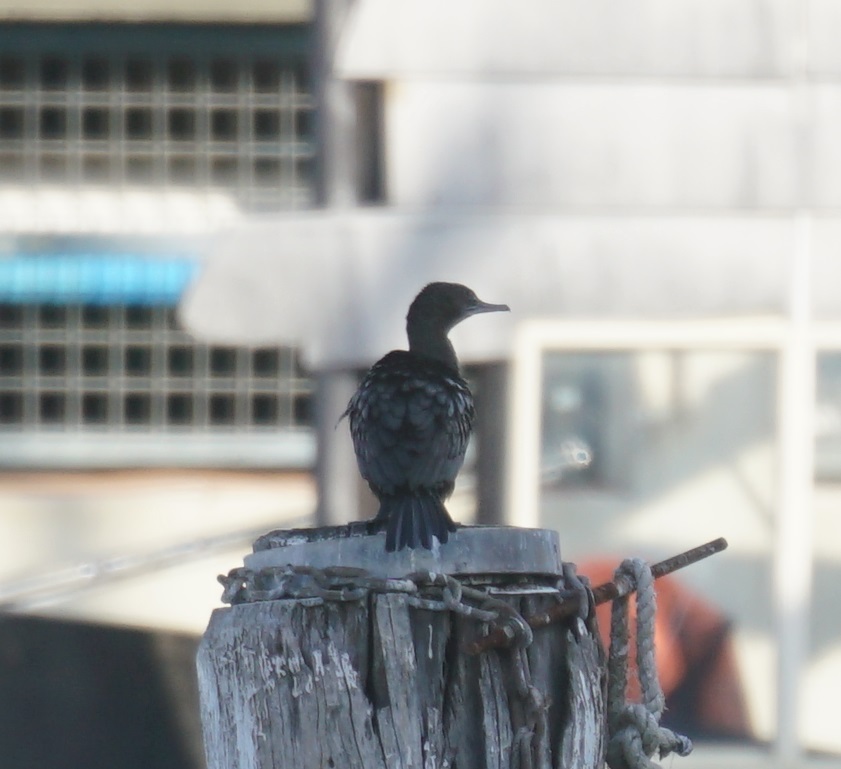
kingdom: Animalia
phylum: Chordata
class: Aves
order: Suliformes
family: Phalacrocoracidae
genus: Phalacrocorax
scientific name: Phalacrocorax sulcirostris
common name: Little black cormorant
